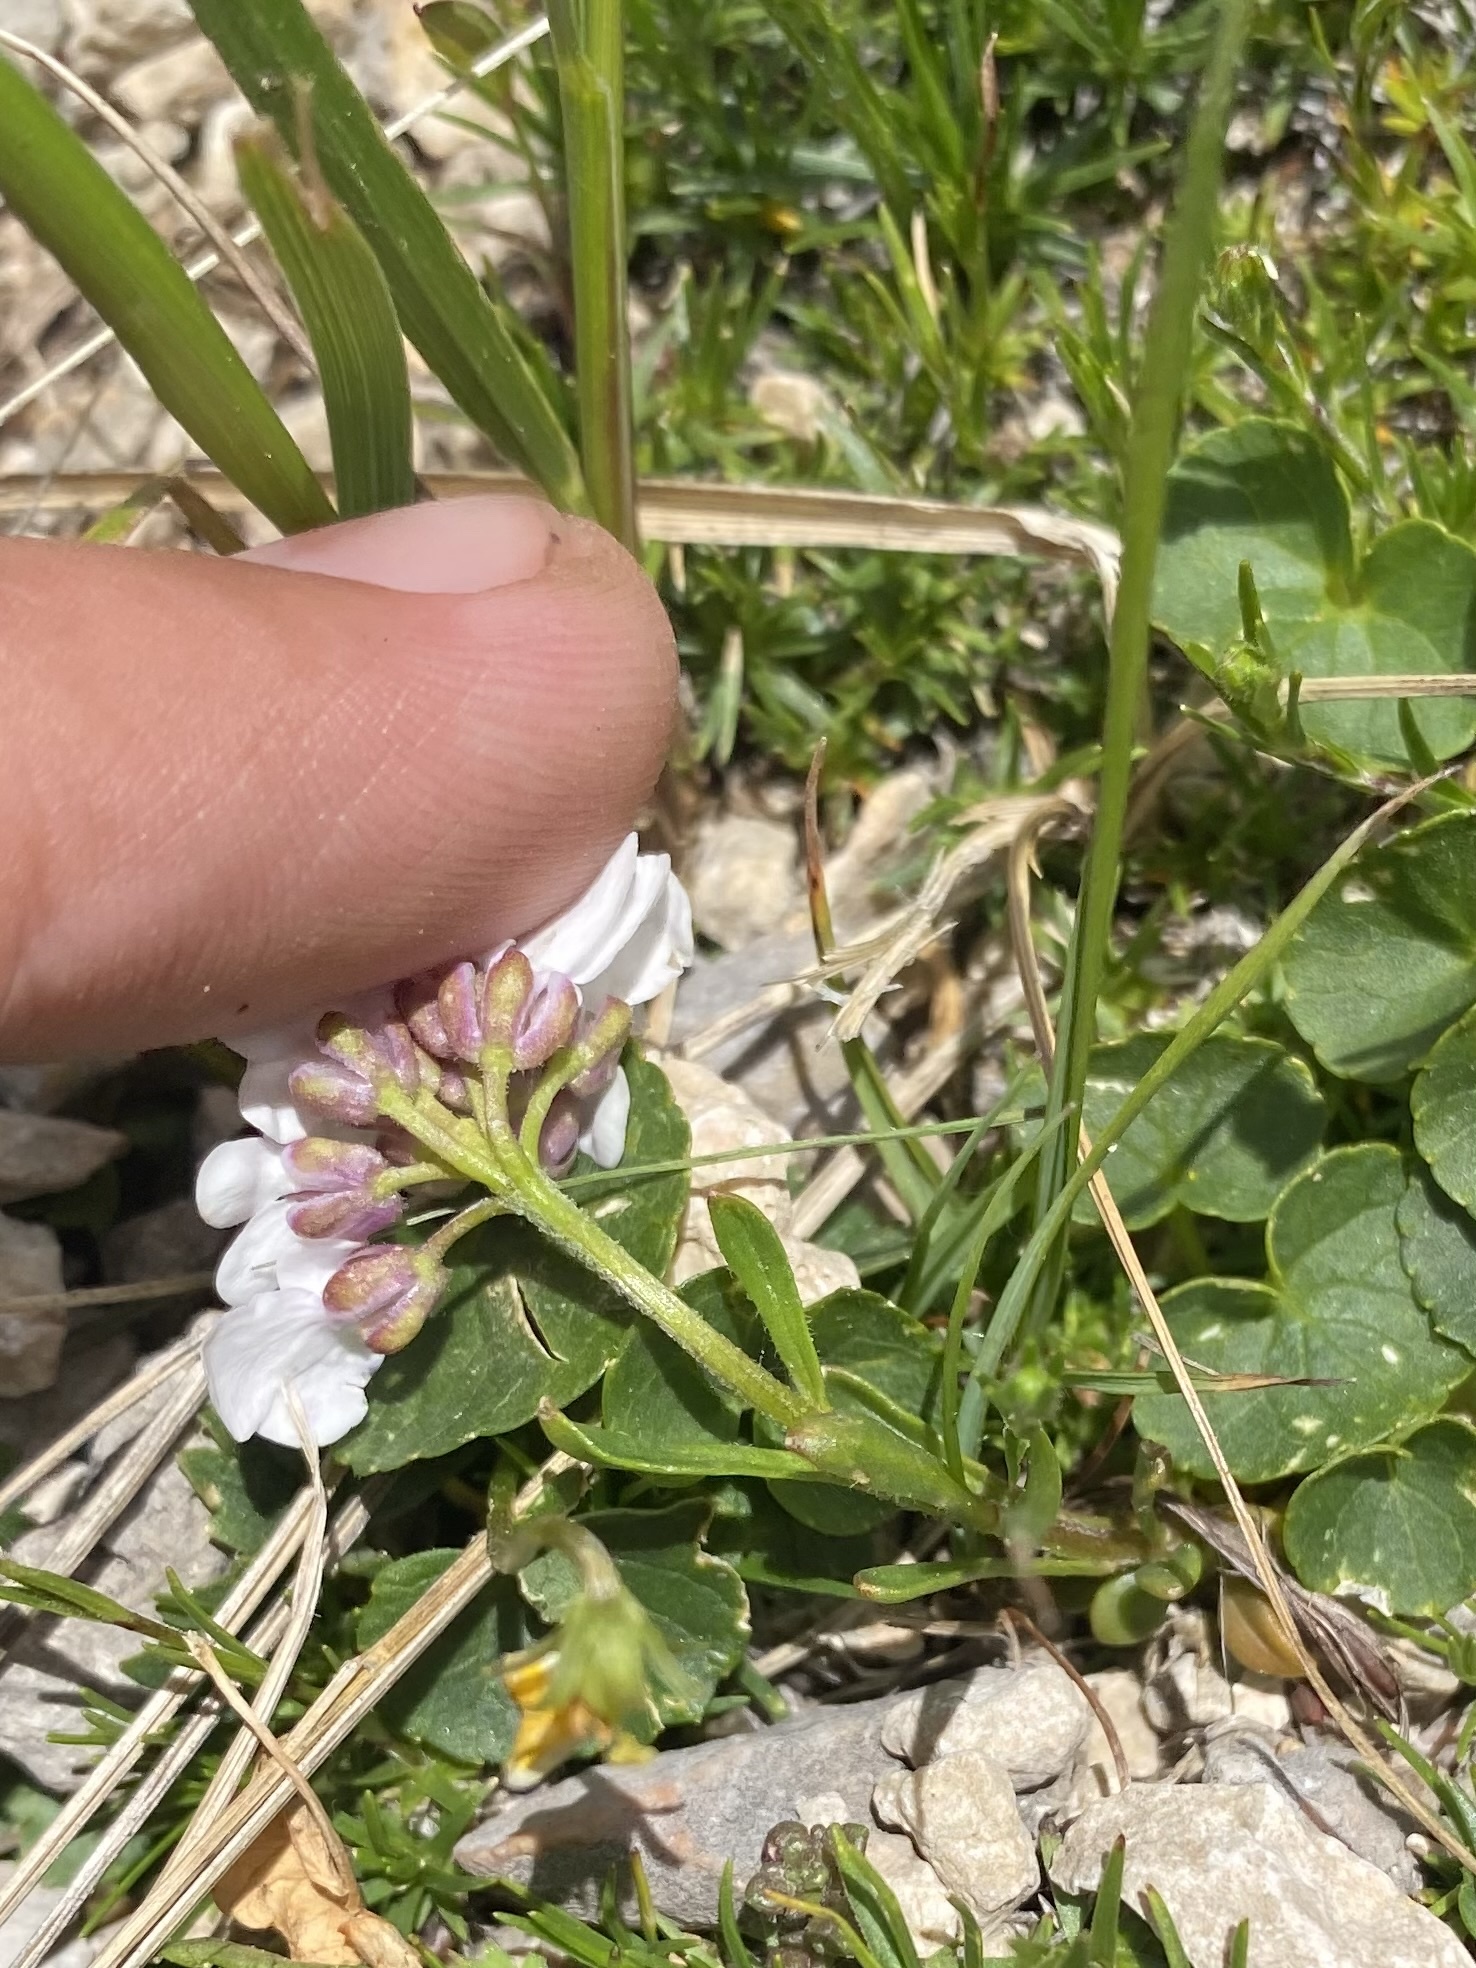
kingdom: Plantae
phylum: Tracheophyta
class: Magnoliopsida
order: Brassicales
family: Brassicaceae
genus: Iberis
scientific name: Iberis saxatilis
